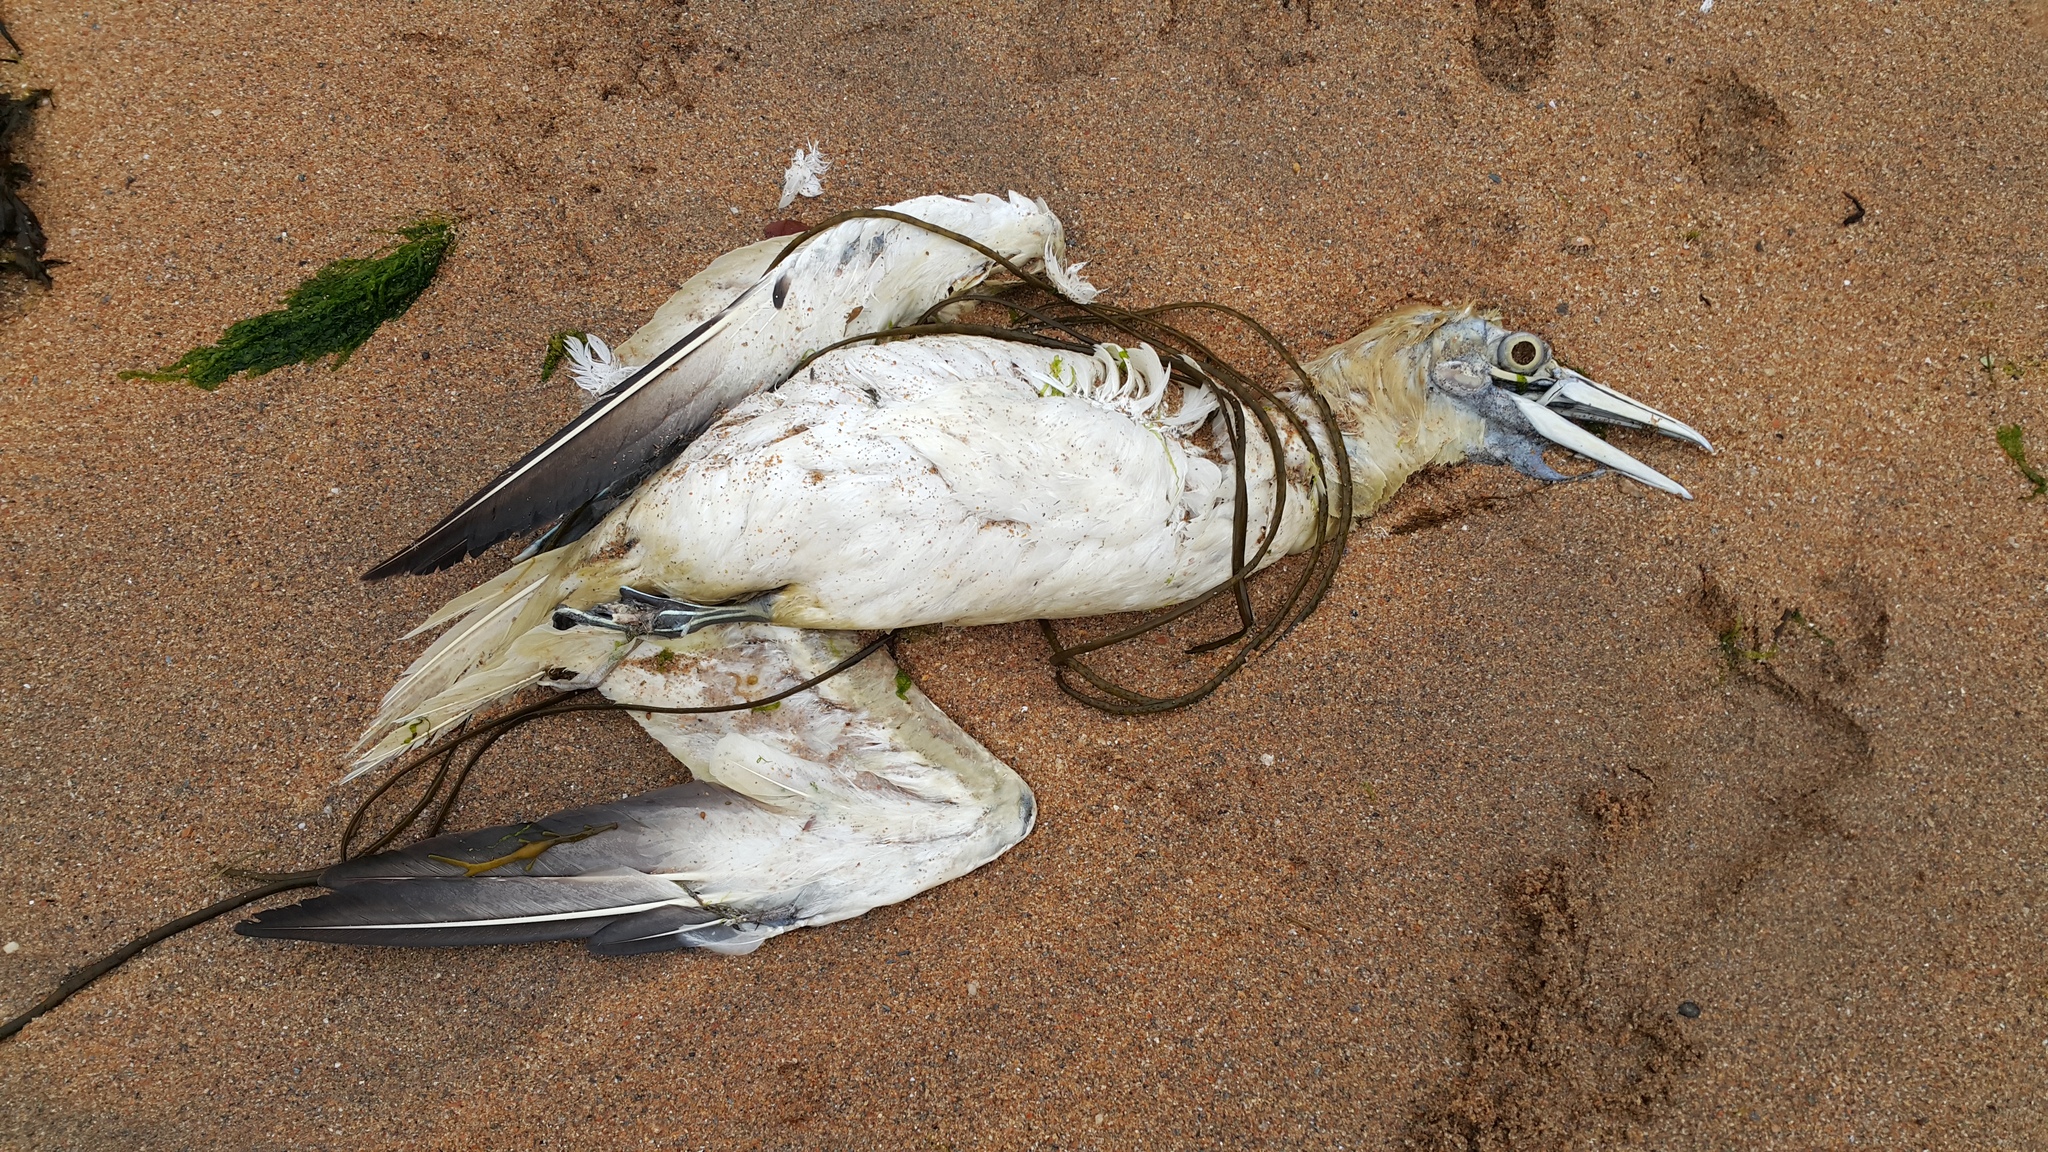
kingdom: Animalia
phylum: Chordata
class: Aves
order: Suliformes
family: Sulidae
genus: Morus
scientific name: Morus bassanus
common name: Northern gannet
